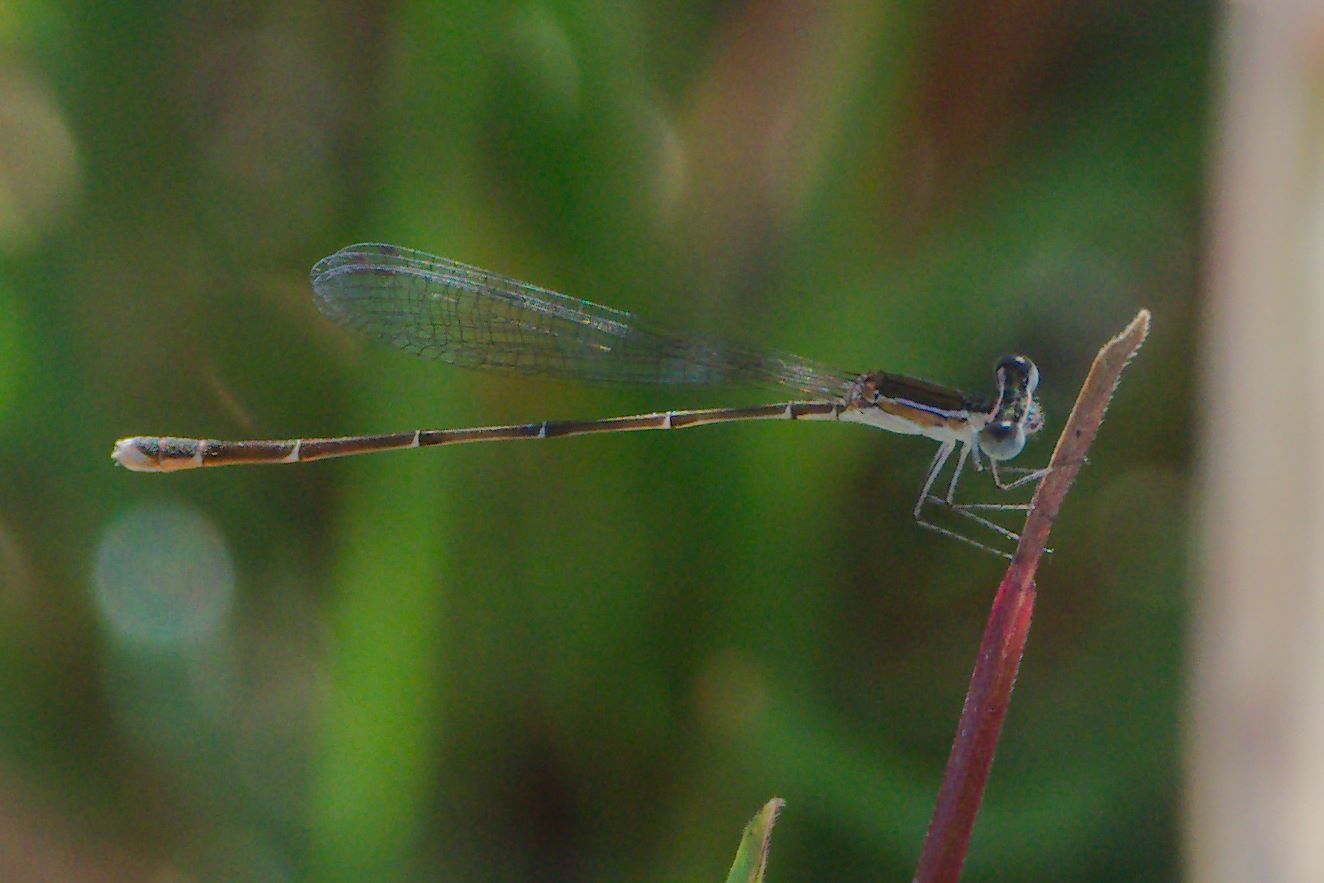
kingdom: Animalia
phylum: Arthropoda
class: Insecta
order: Odonata
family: Coenagrionidae
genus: Nehalennia
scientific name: Nehalennia pallidula
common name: Everglades sprite
